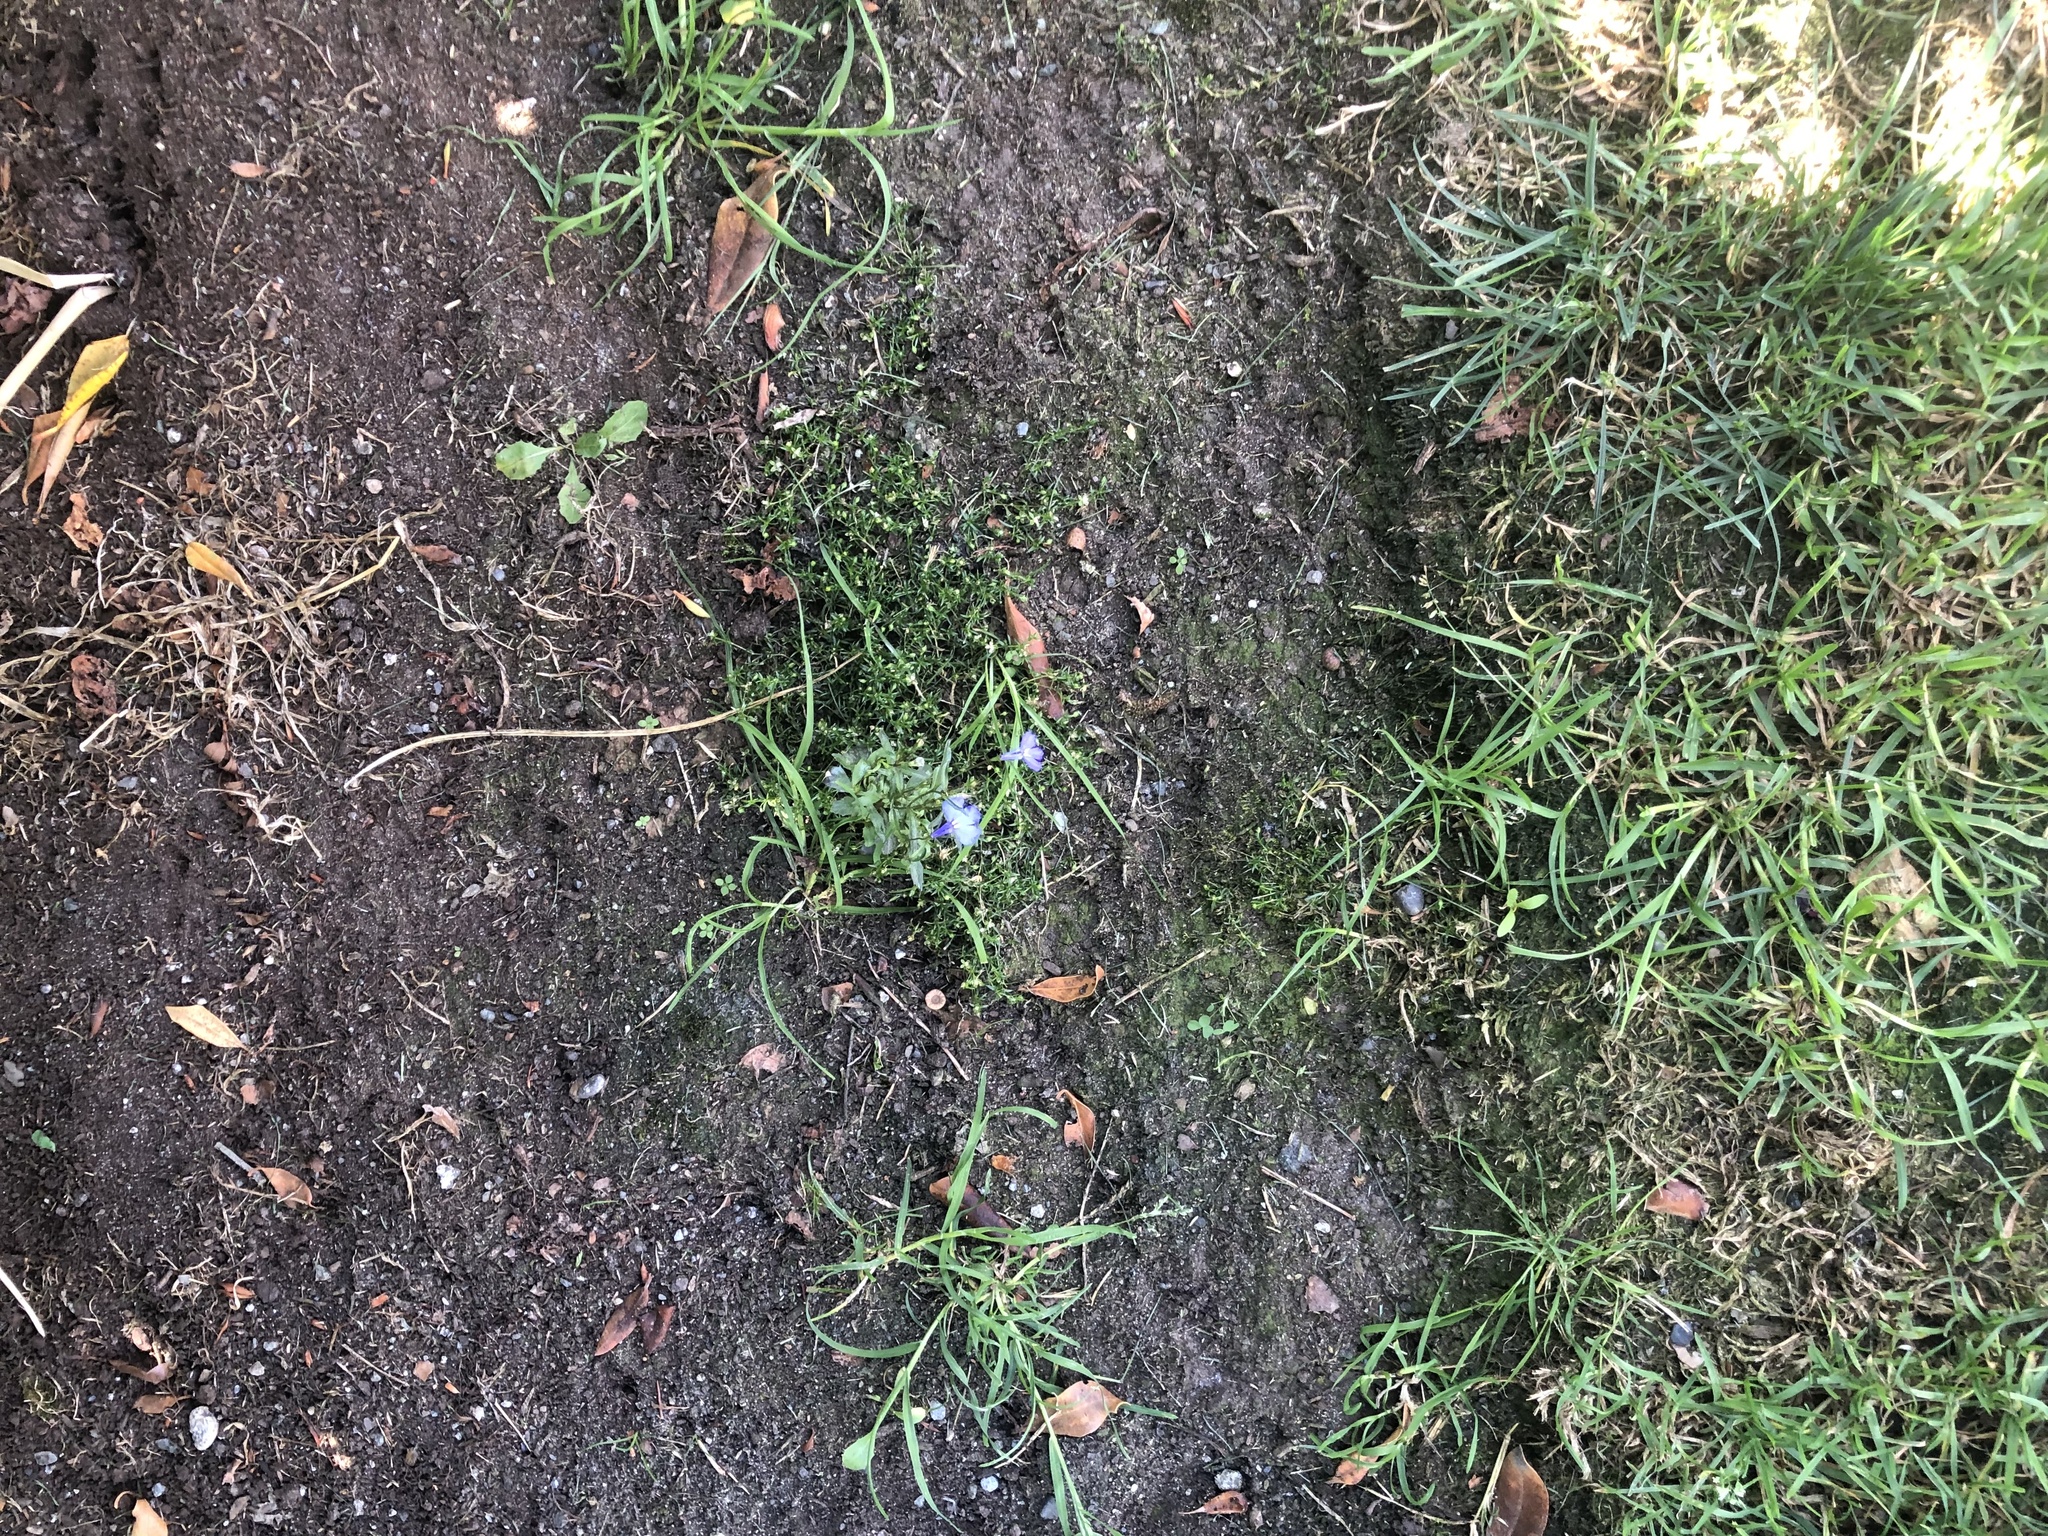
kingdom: Plantae
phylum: Tracheophyta
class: Magnoliopsida
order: Asterales
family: Campanulaceae
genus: Lobelia
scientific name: Lobelia erinus
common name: Edging lobelia
